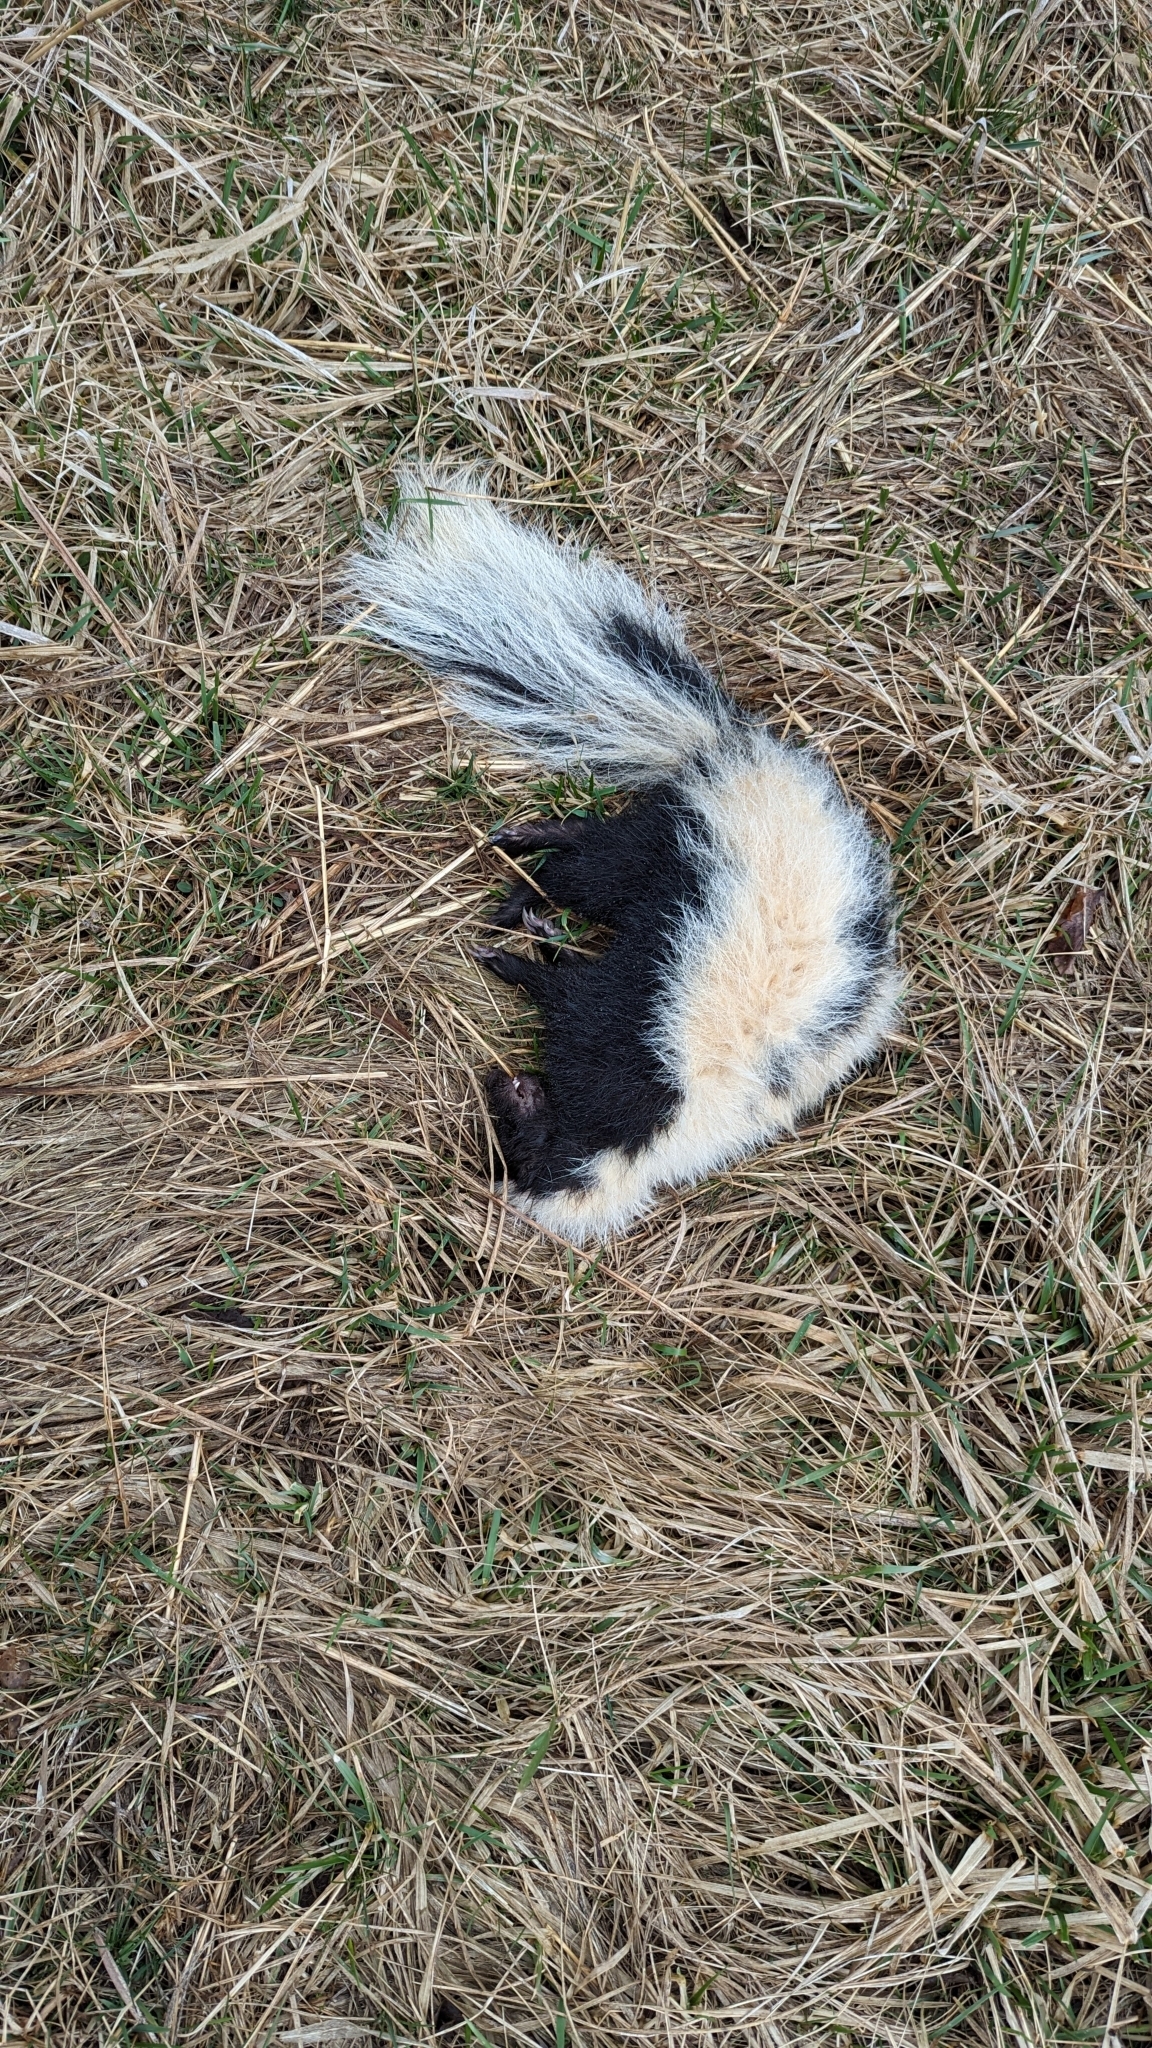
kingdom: Animalia
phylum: Chordata
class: Mammalia
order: Carnivora
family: Mephitidae
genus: Mephitis
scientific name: Mephitis mephitis
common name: Striped skunk
